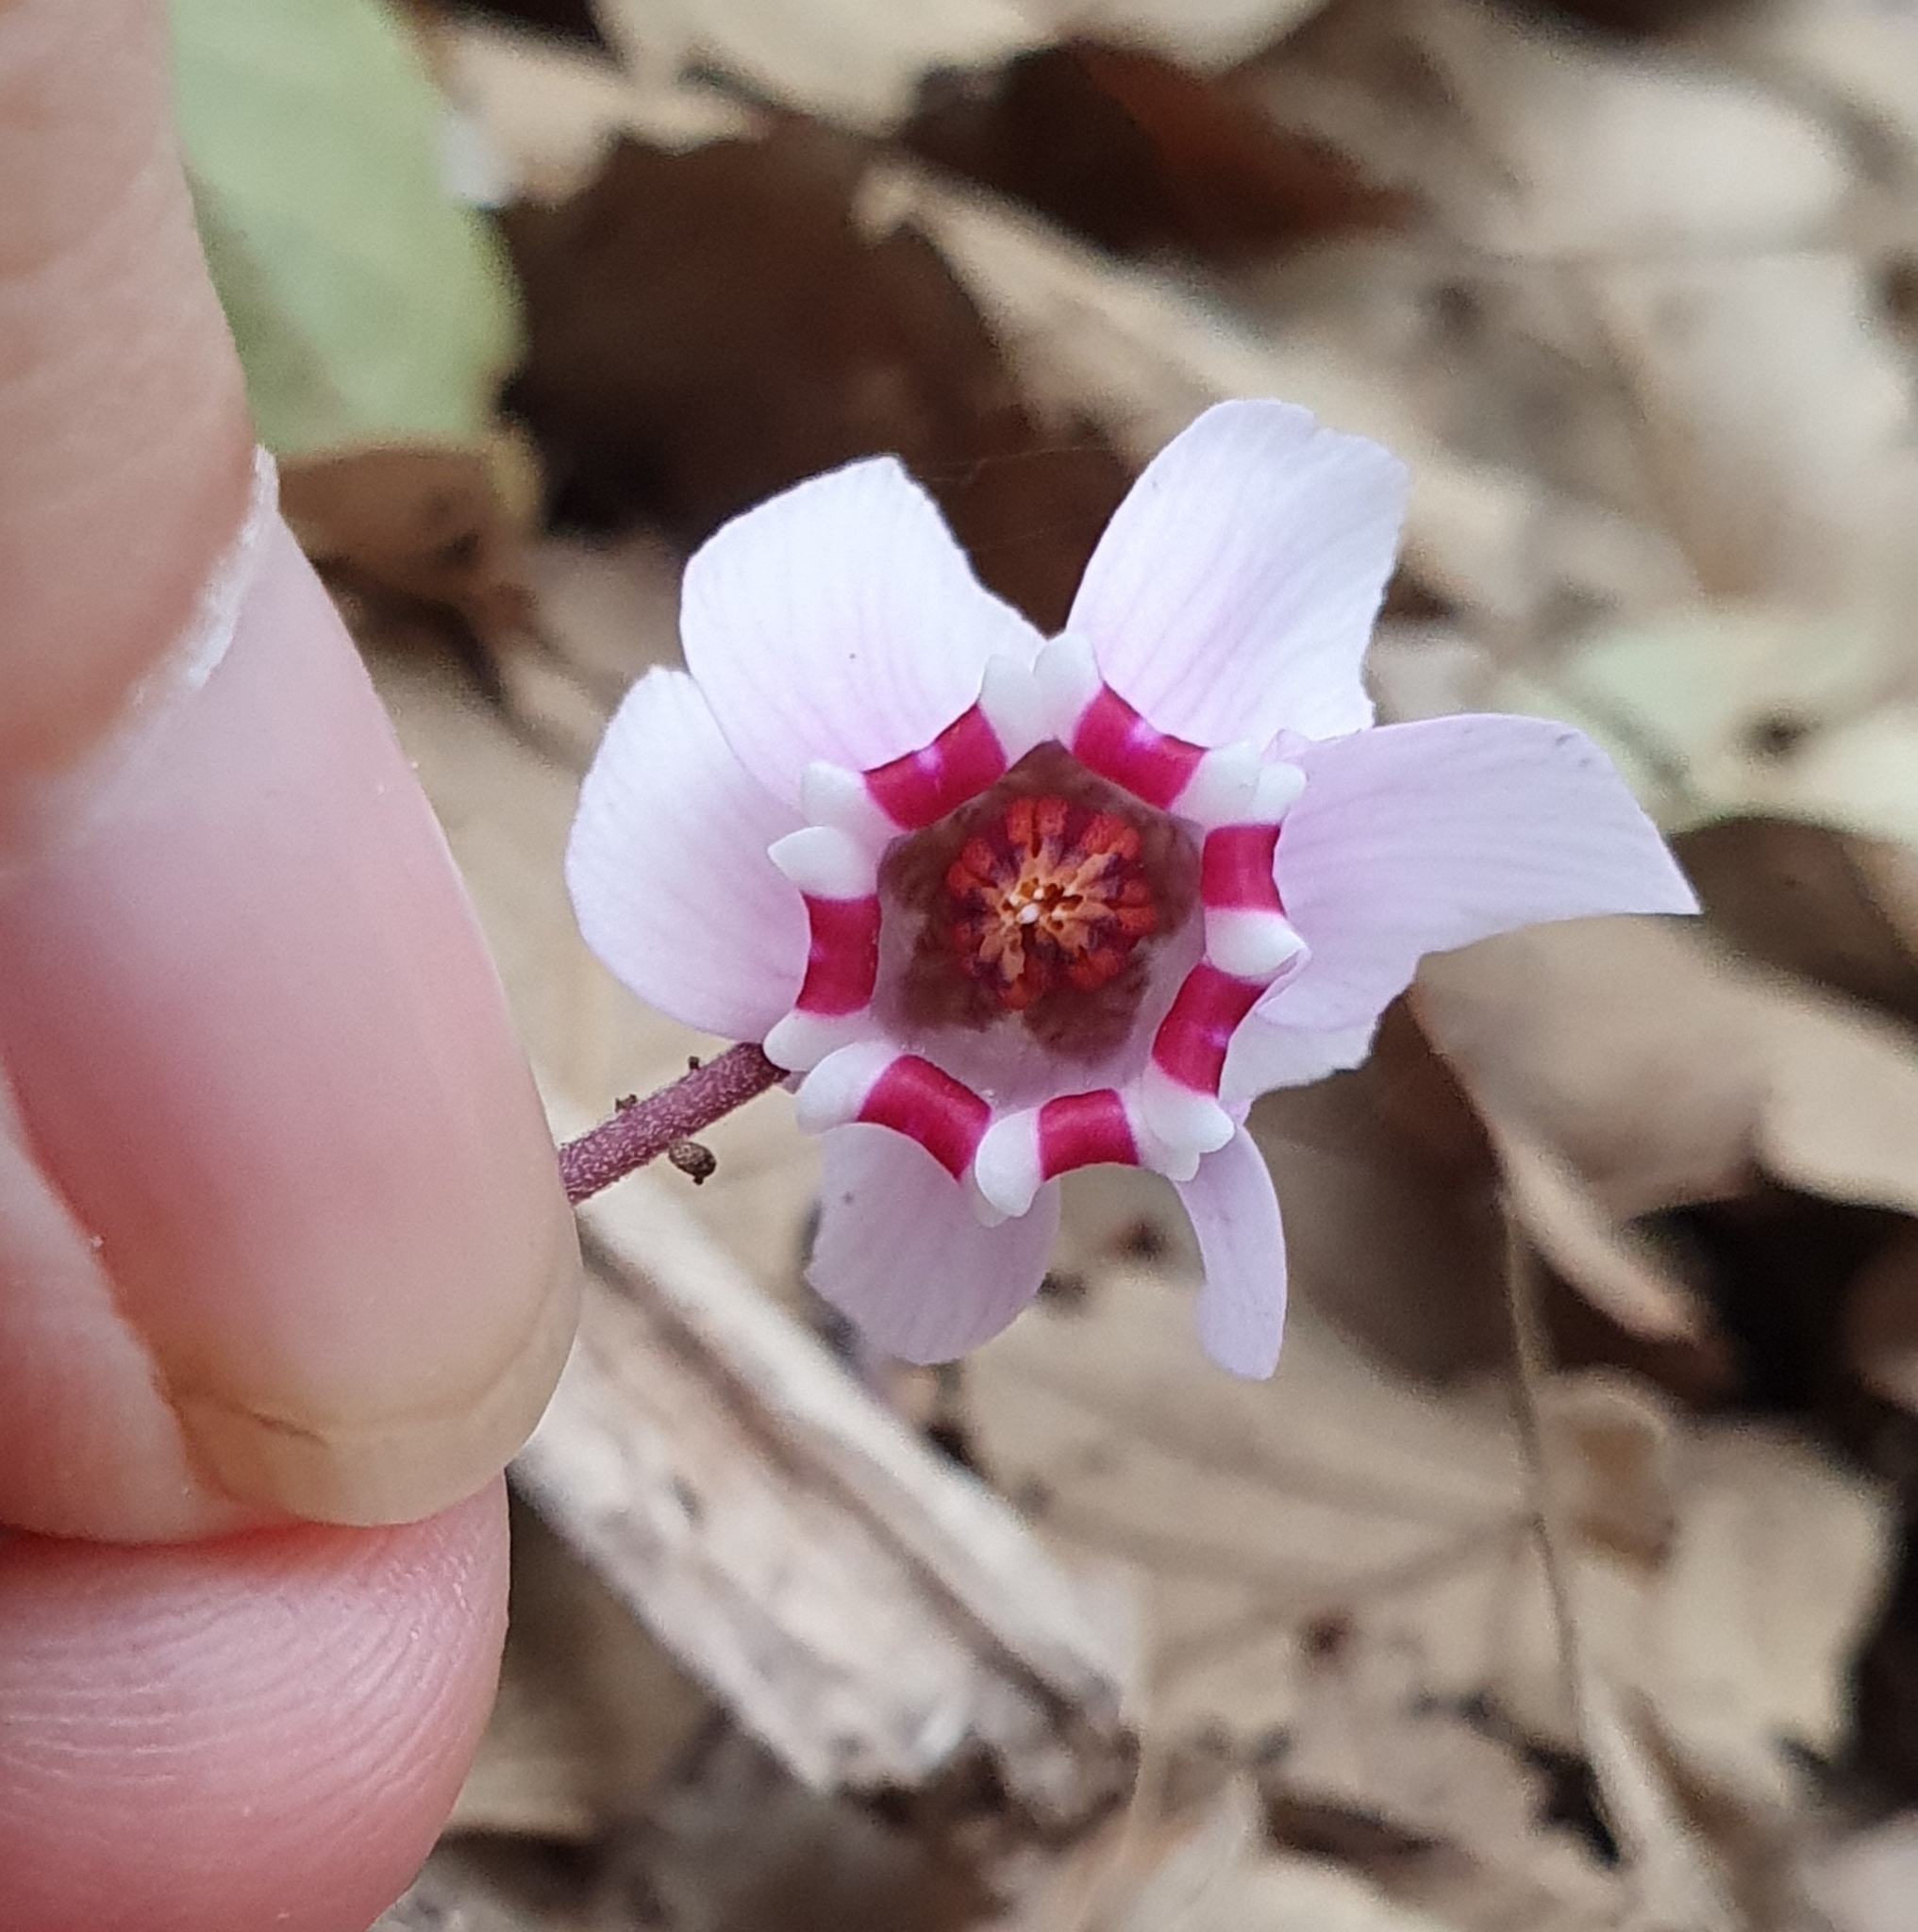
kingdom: Plantae
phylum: Tracheophyta
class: Magnoliopsida
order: Ericales
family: Primulaceae
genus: Cyclamen
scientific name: Cyclamen africanum
